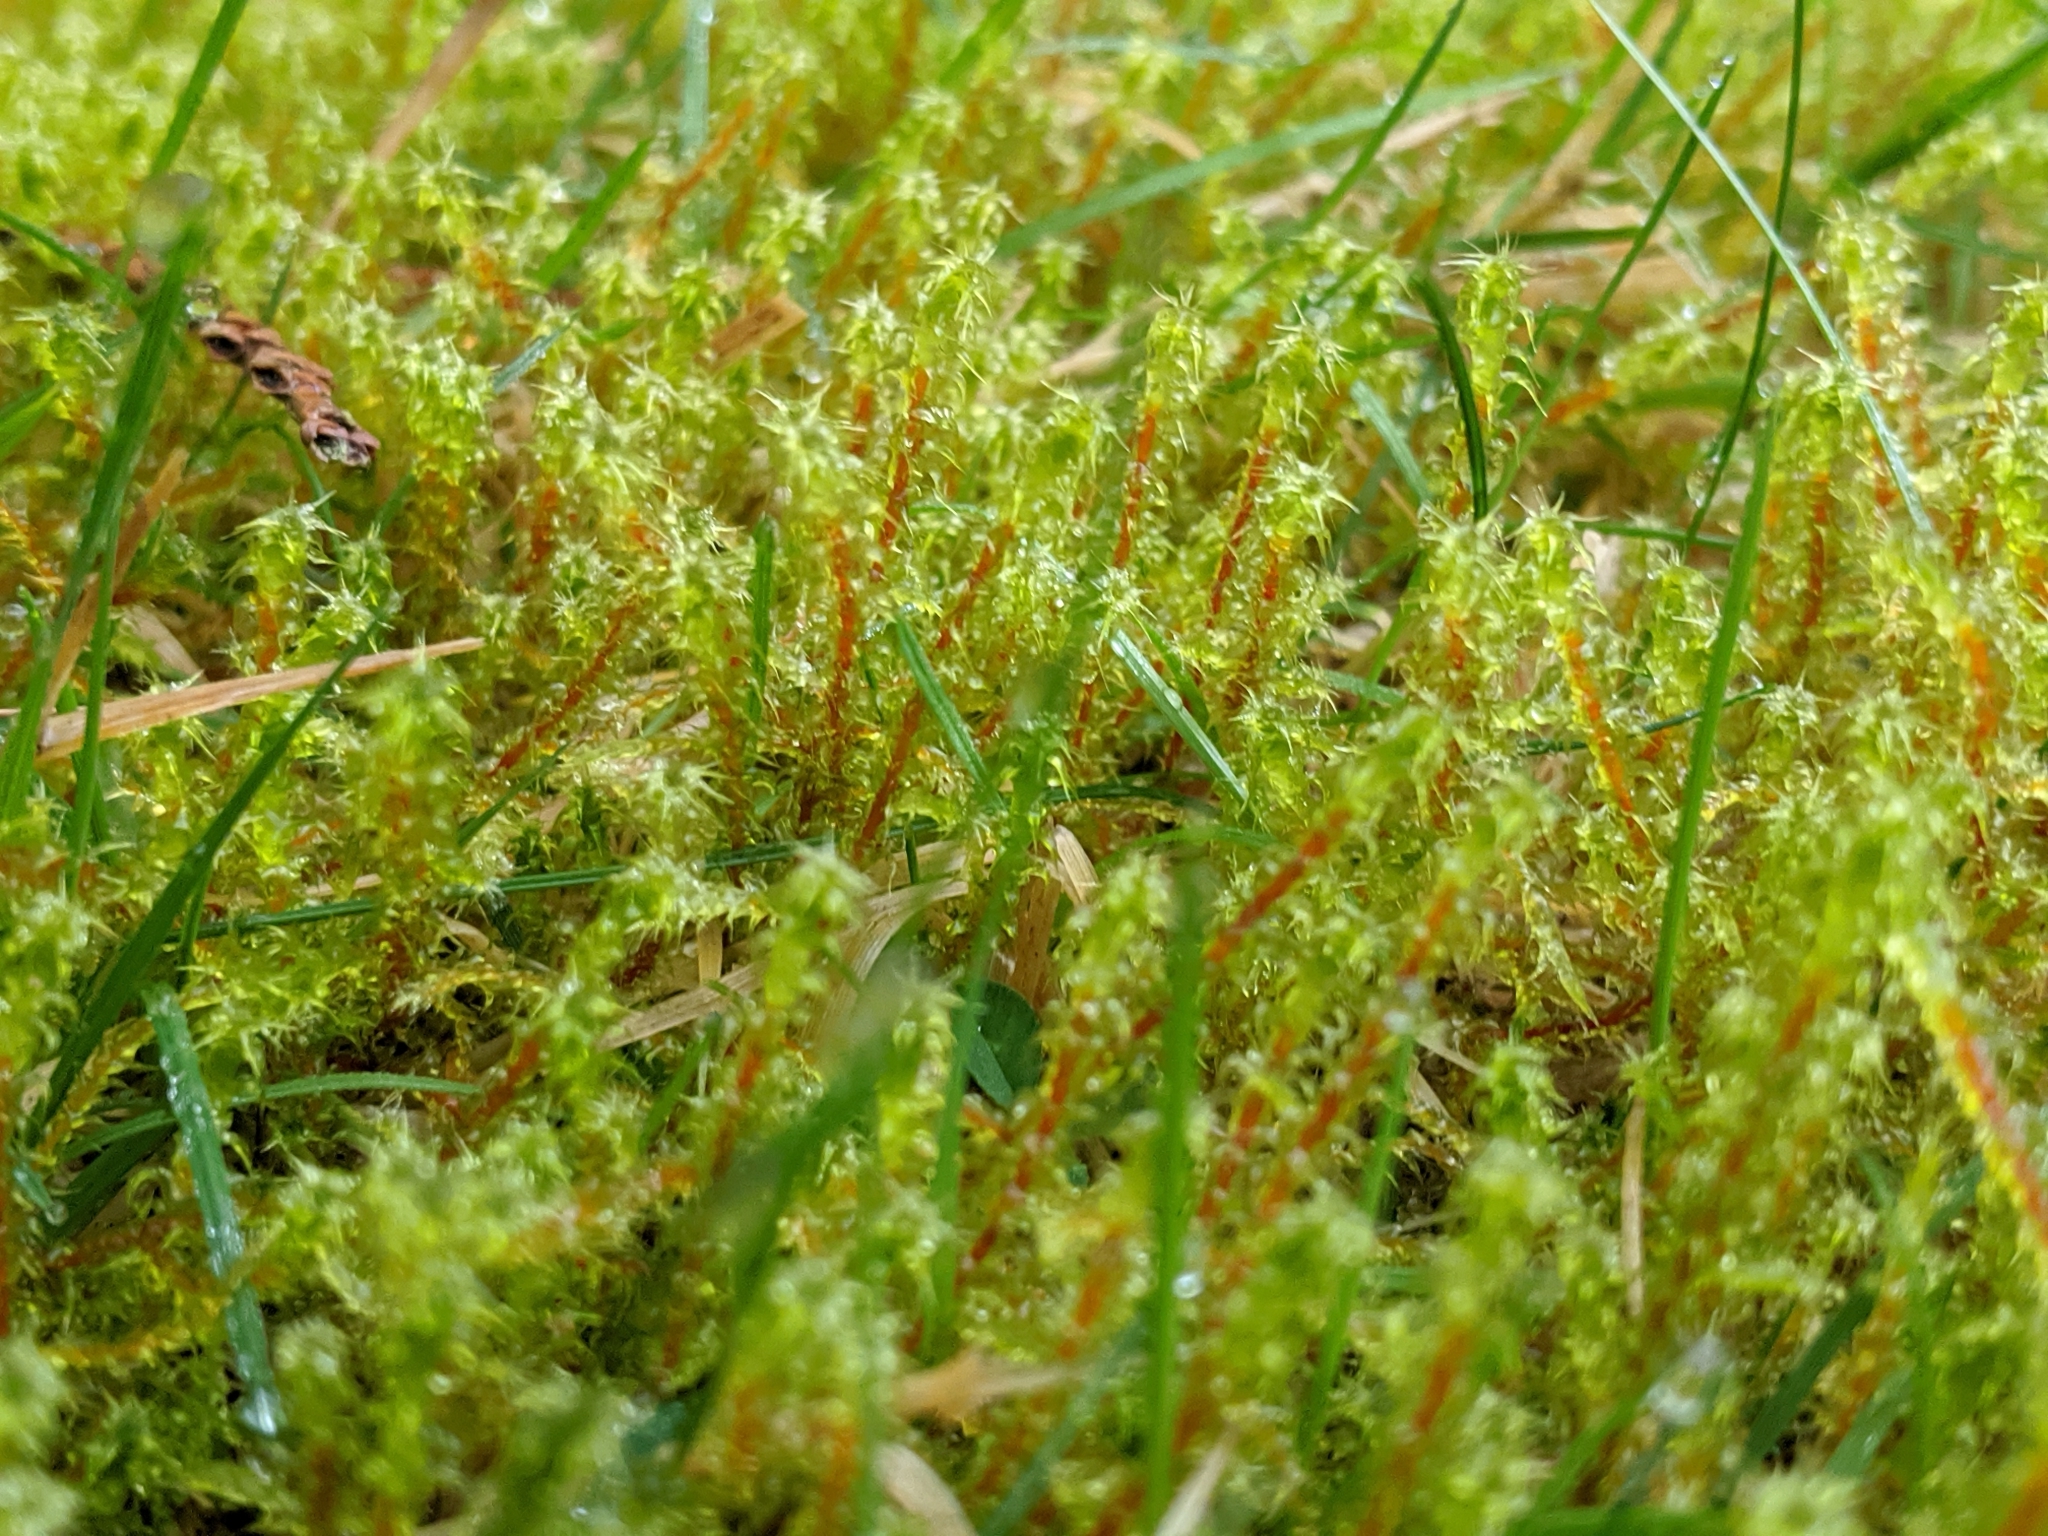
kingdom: Plantae
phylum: Bryophyta
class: Bryopsida
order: Hypnales
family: Hylocomiaceae
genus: Rhytidiadelphus
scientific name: Rhytidiadelphus squarrosus
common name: Springy turf-moss
